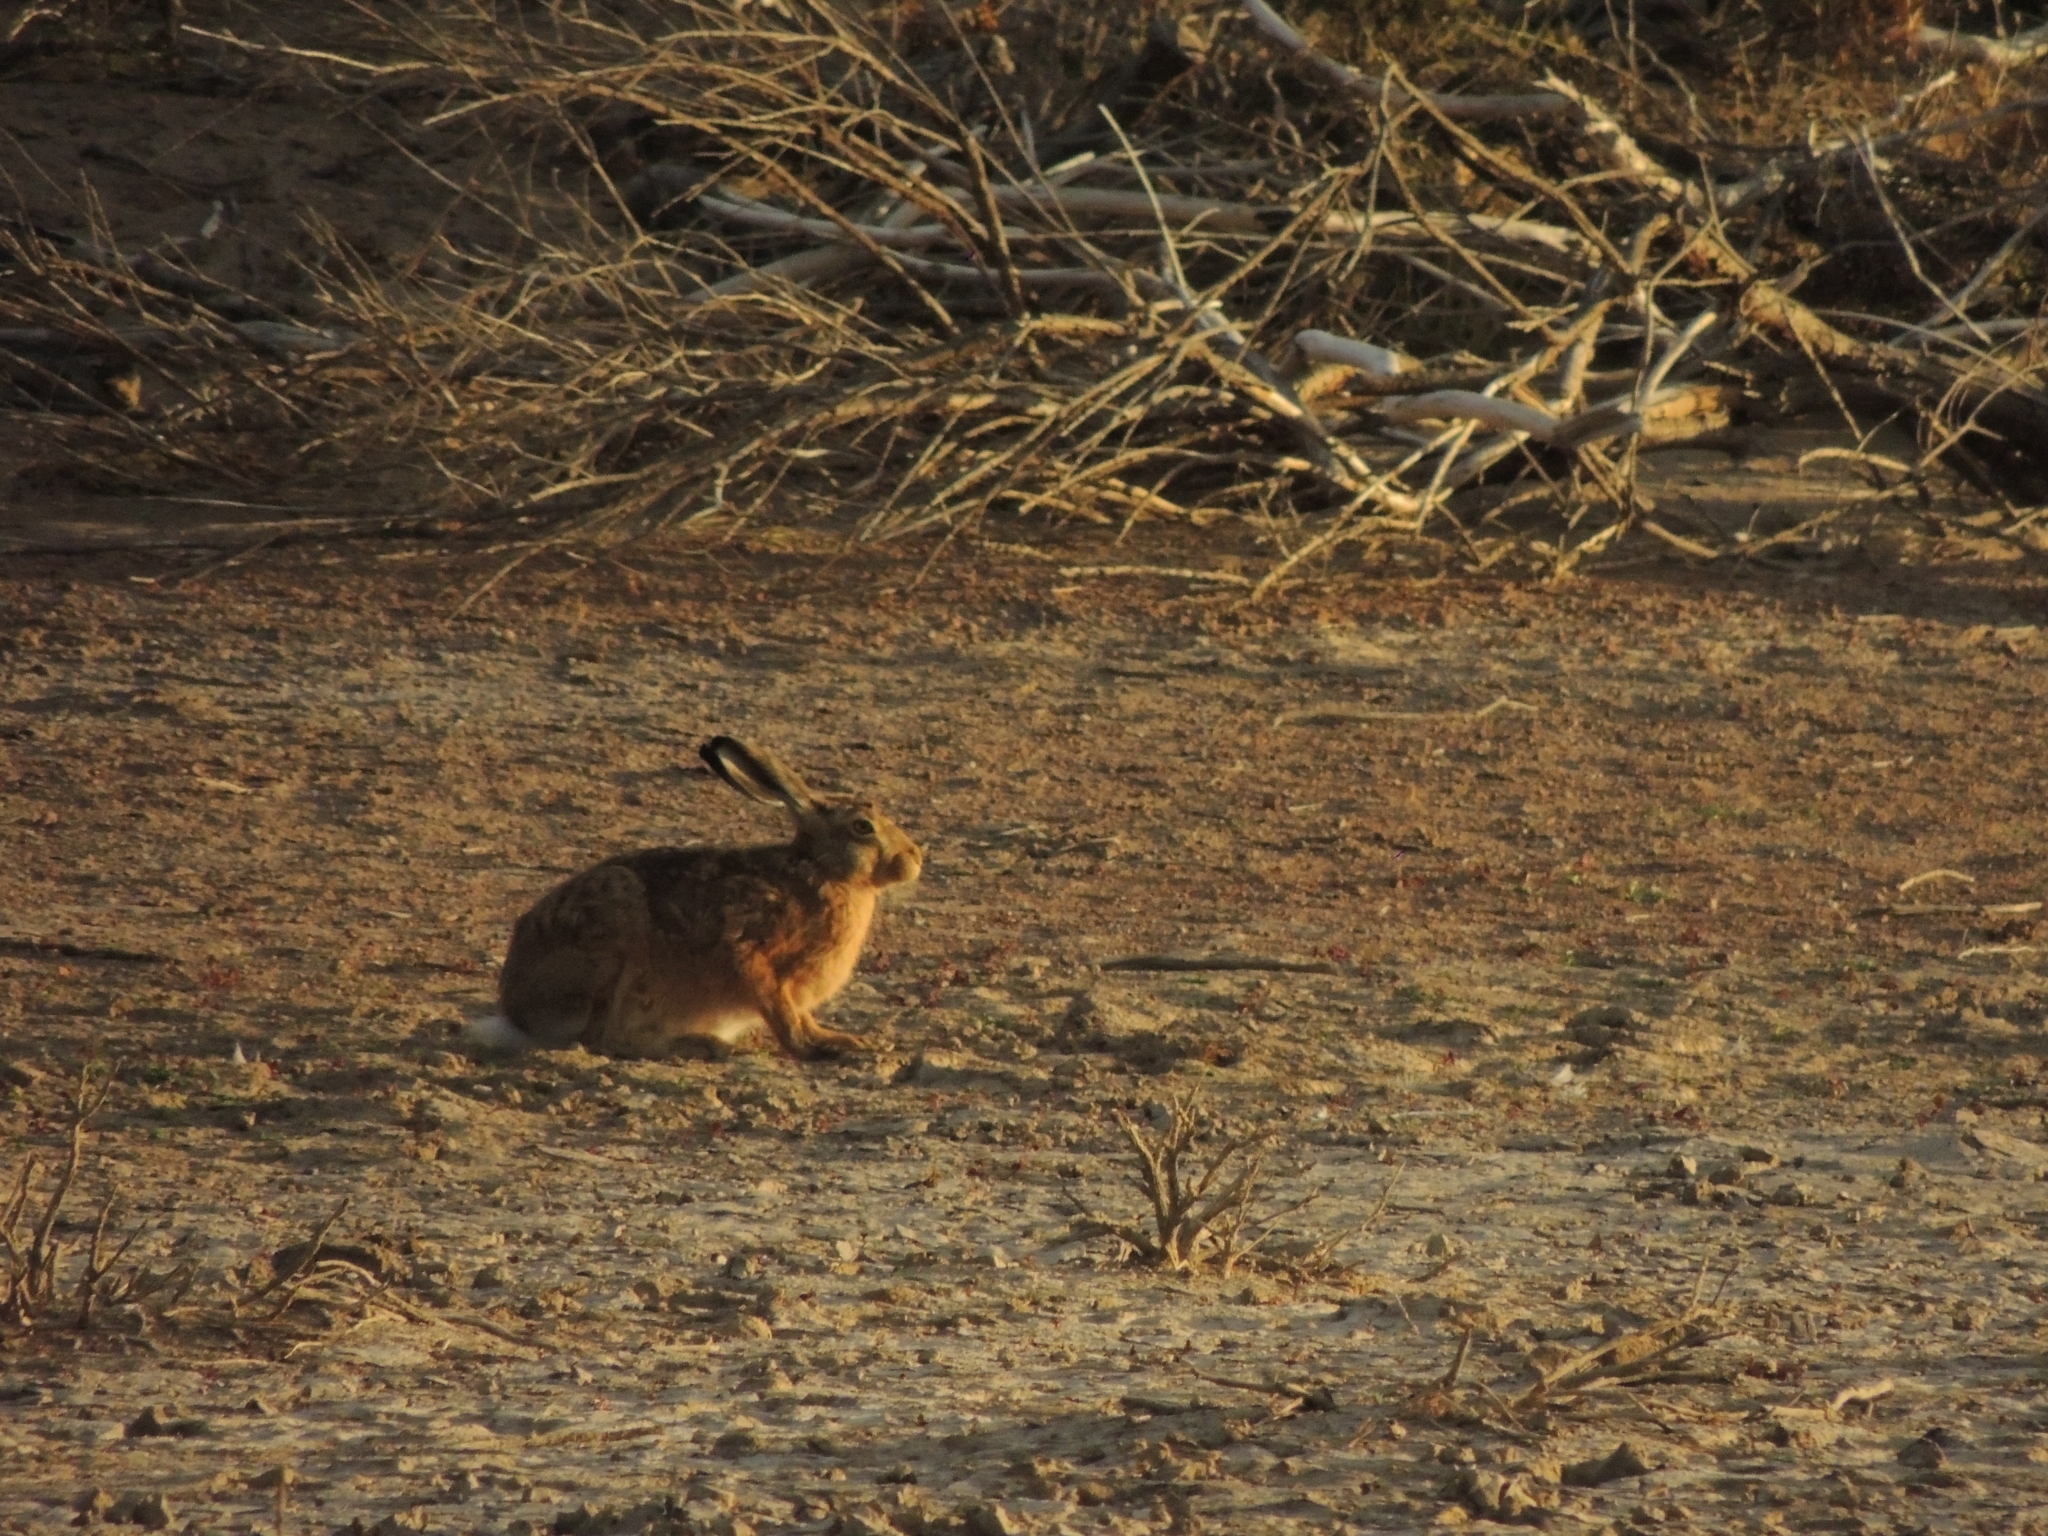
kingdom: Animalia
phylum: Chordata
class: Mammalia
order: Lagomorpha
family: Leporidae
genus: Lepus
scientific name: Lepus europaeus
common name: European hare
